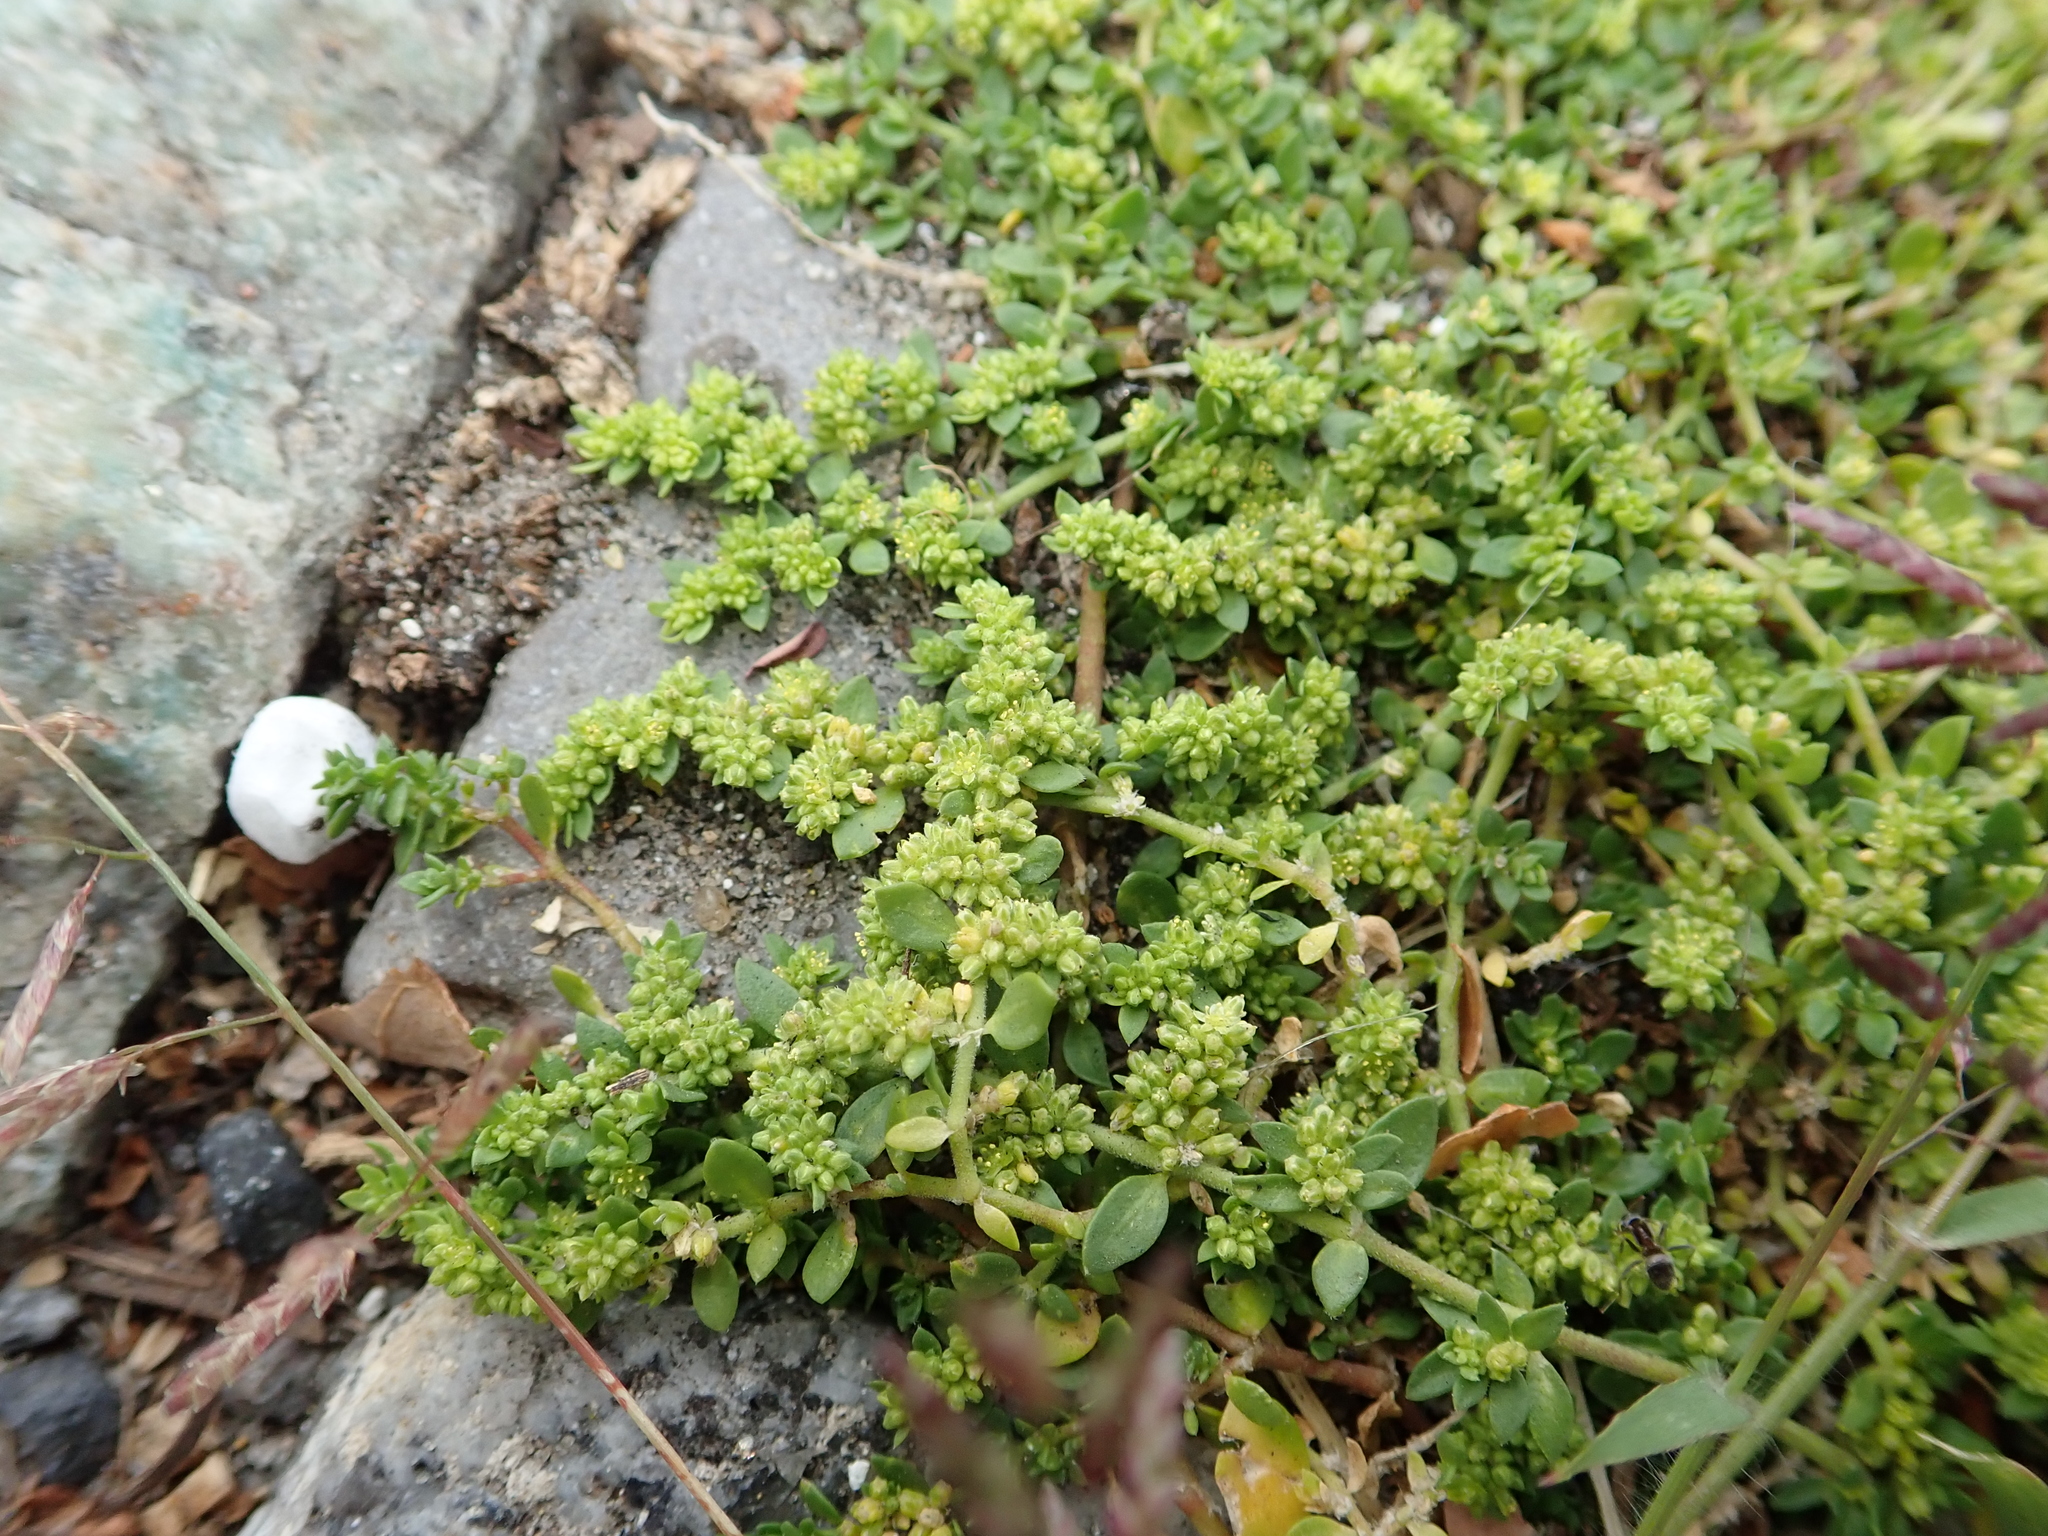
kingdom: Plantae
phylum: Tracheophyta
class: Magnoliopsida
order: Caryophyllales
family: Caryophyllaceae
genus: Herniaria
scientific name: Herniaria glabra
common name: Smooth rupturewort
